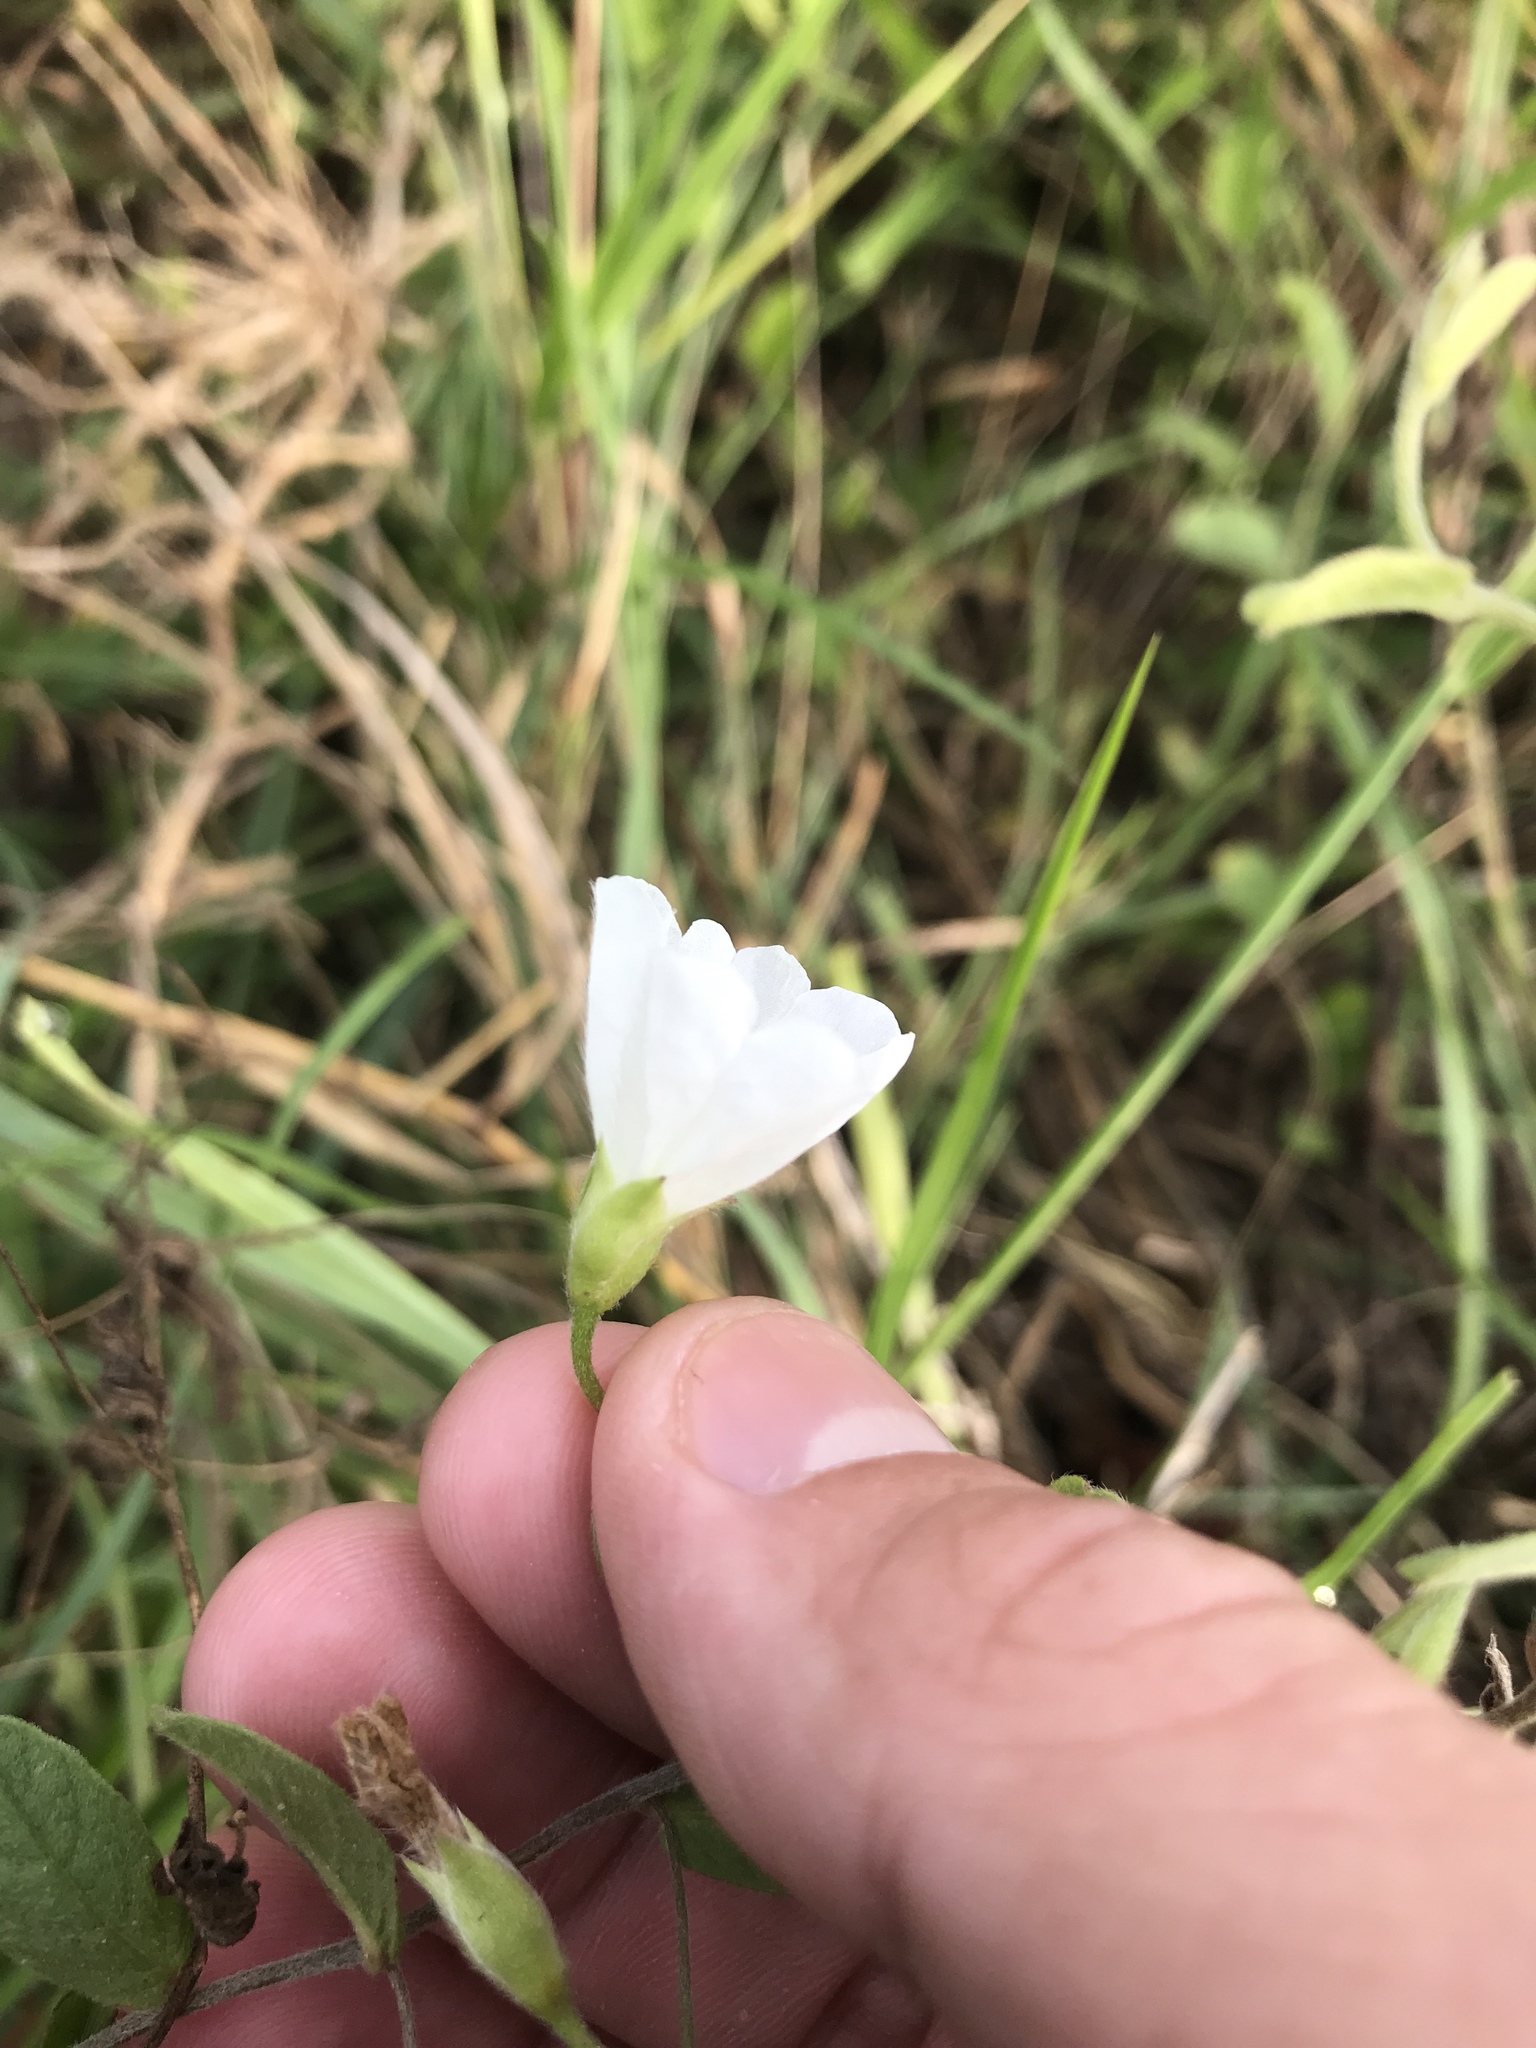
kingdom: Plantae
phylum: Tracheophyta
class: Magnoliopsida
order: Solanales
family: Convolvulaceae
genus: Stylisma
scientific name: Stylisma villosa
